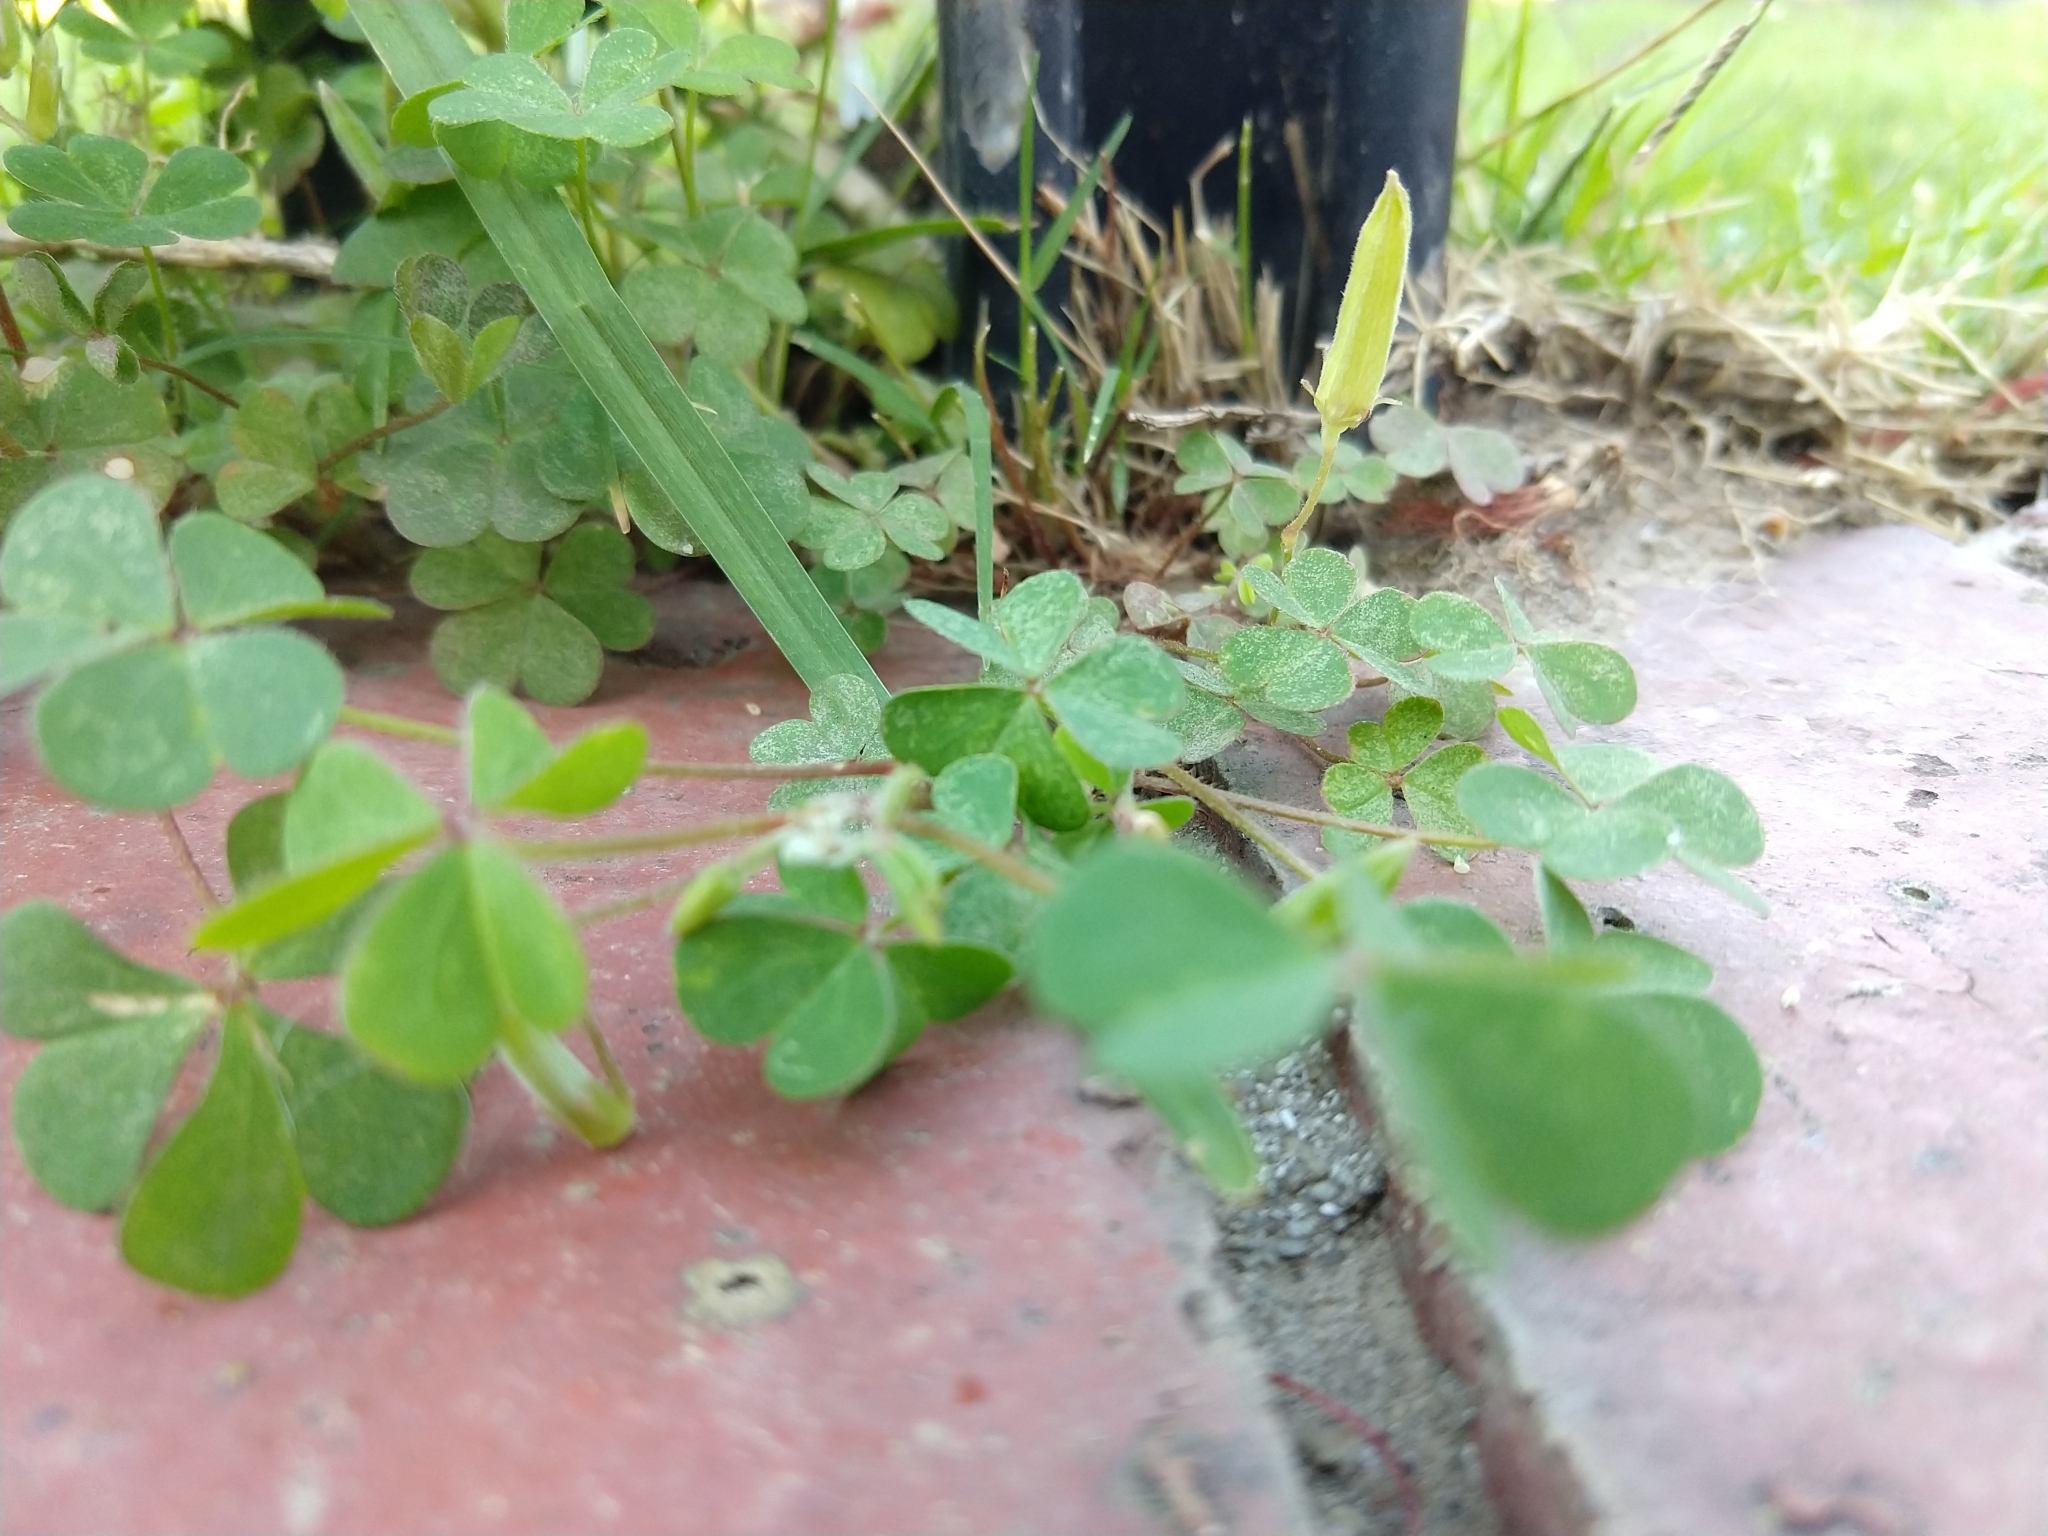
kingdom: Plantae
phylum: Tracheophyta
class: Magnoliopsida
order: Oxalidales
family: Oxalidaceae
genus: Oxalis
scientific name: Oxalis corniculata
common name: Procumbent yellow-sorrel
